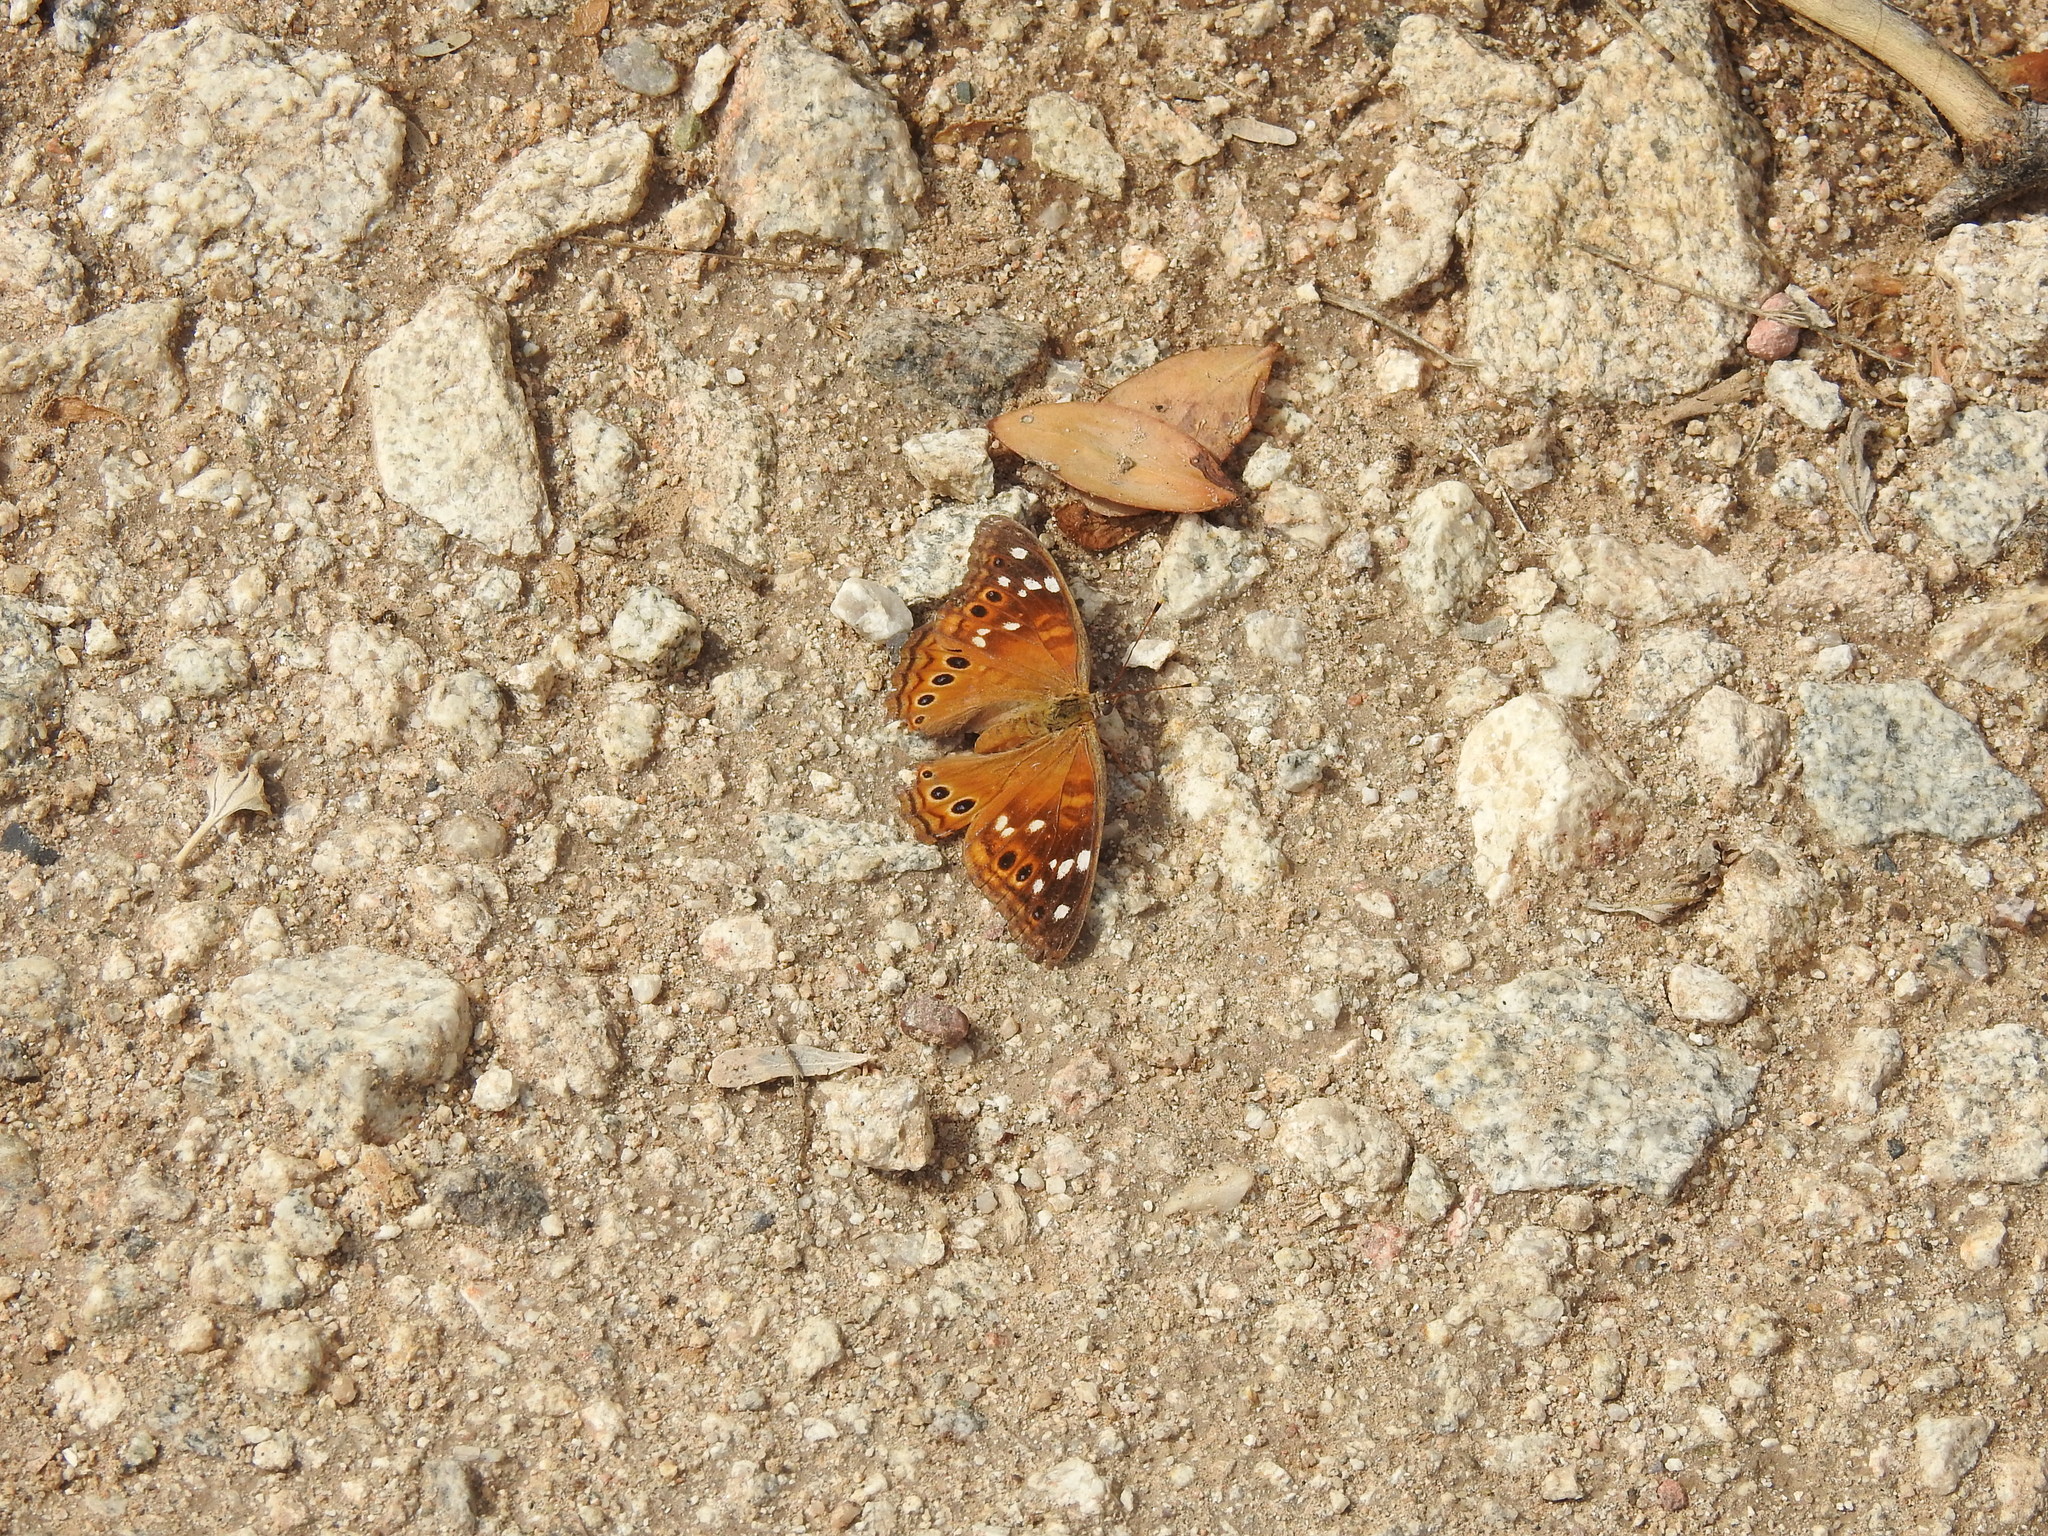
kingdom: Animalia
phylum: Arthropoda
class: Insecta
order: Lepidoptera
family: Nymphalidae
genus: Asterocampa
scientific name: Asterocampa leilia
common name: Empress leilia
